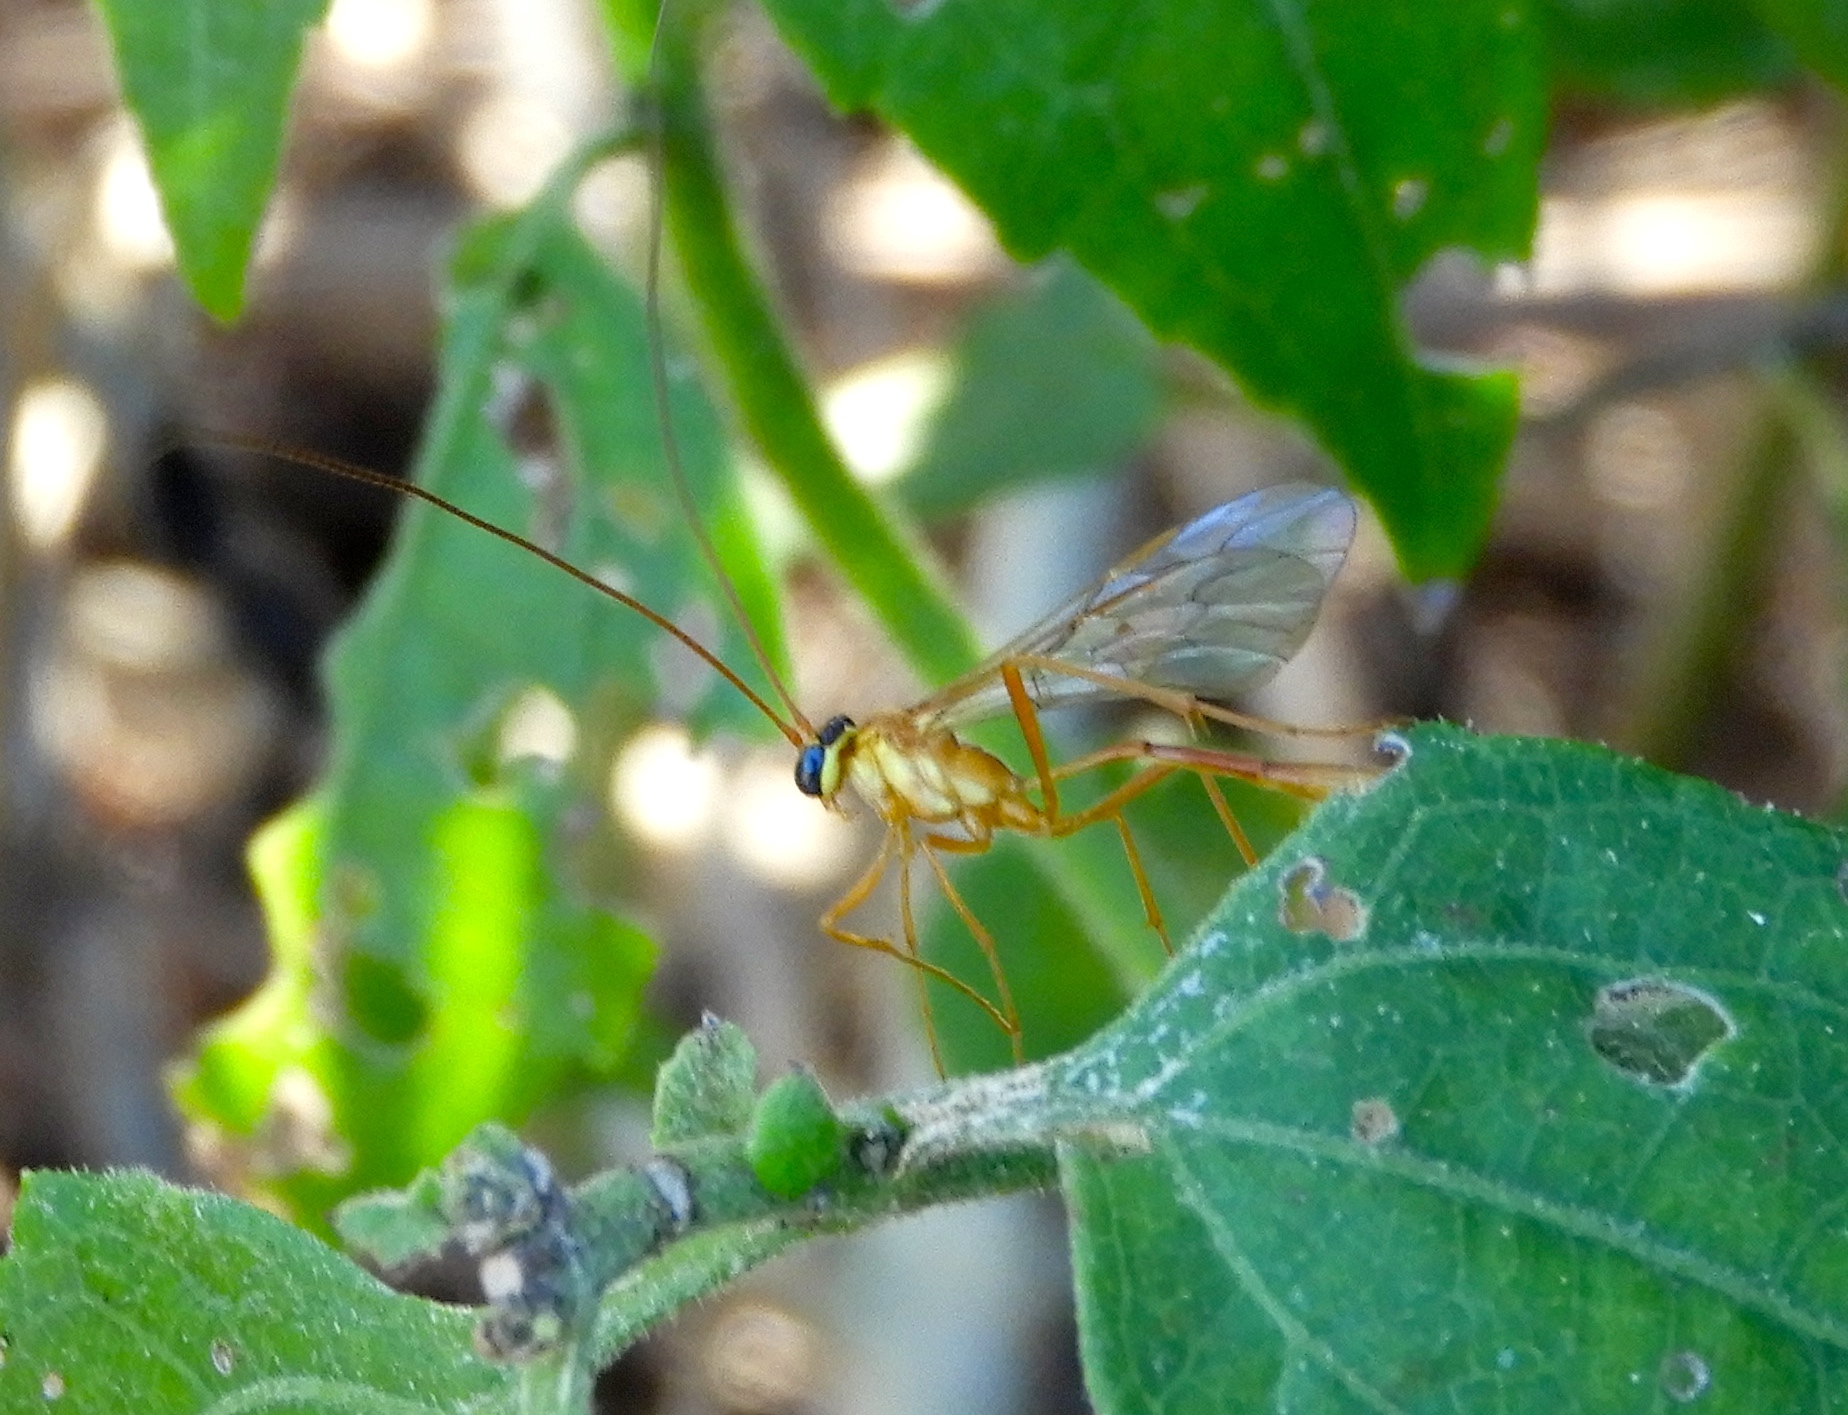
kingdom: Animalia
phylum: Arthropoda
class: Insecta
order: Hymenoptera
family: Ichneumonidae
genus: Enicospilus
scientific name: Enicospilus
